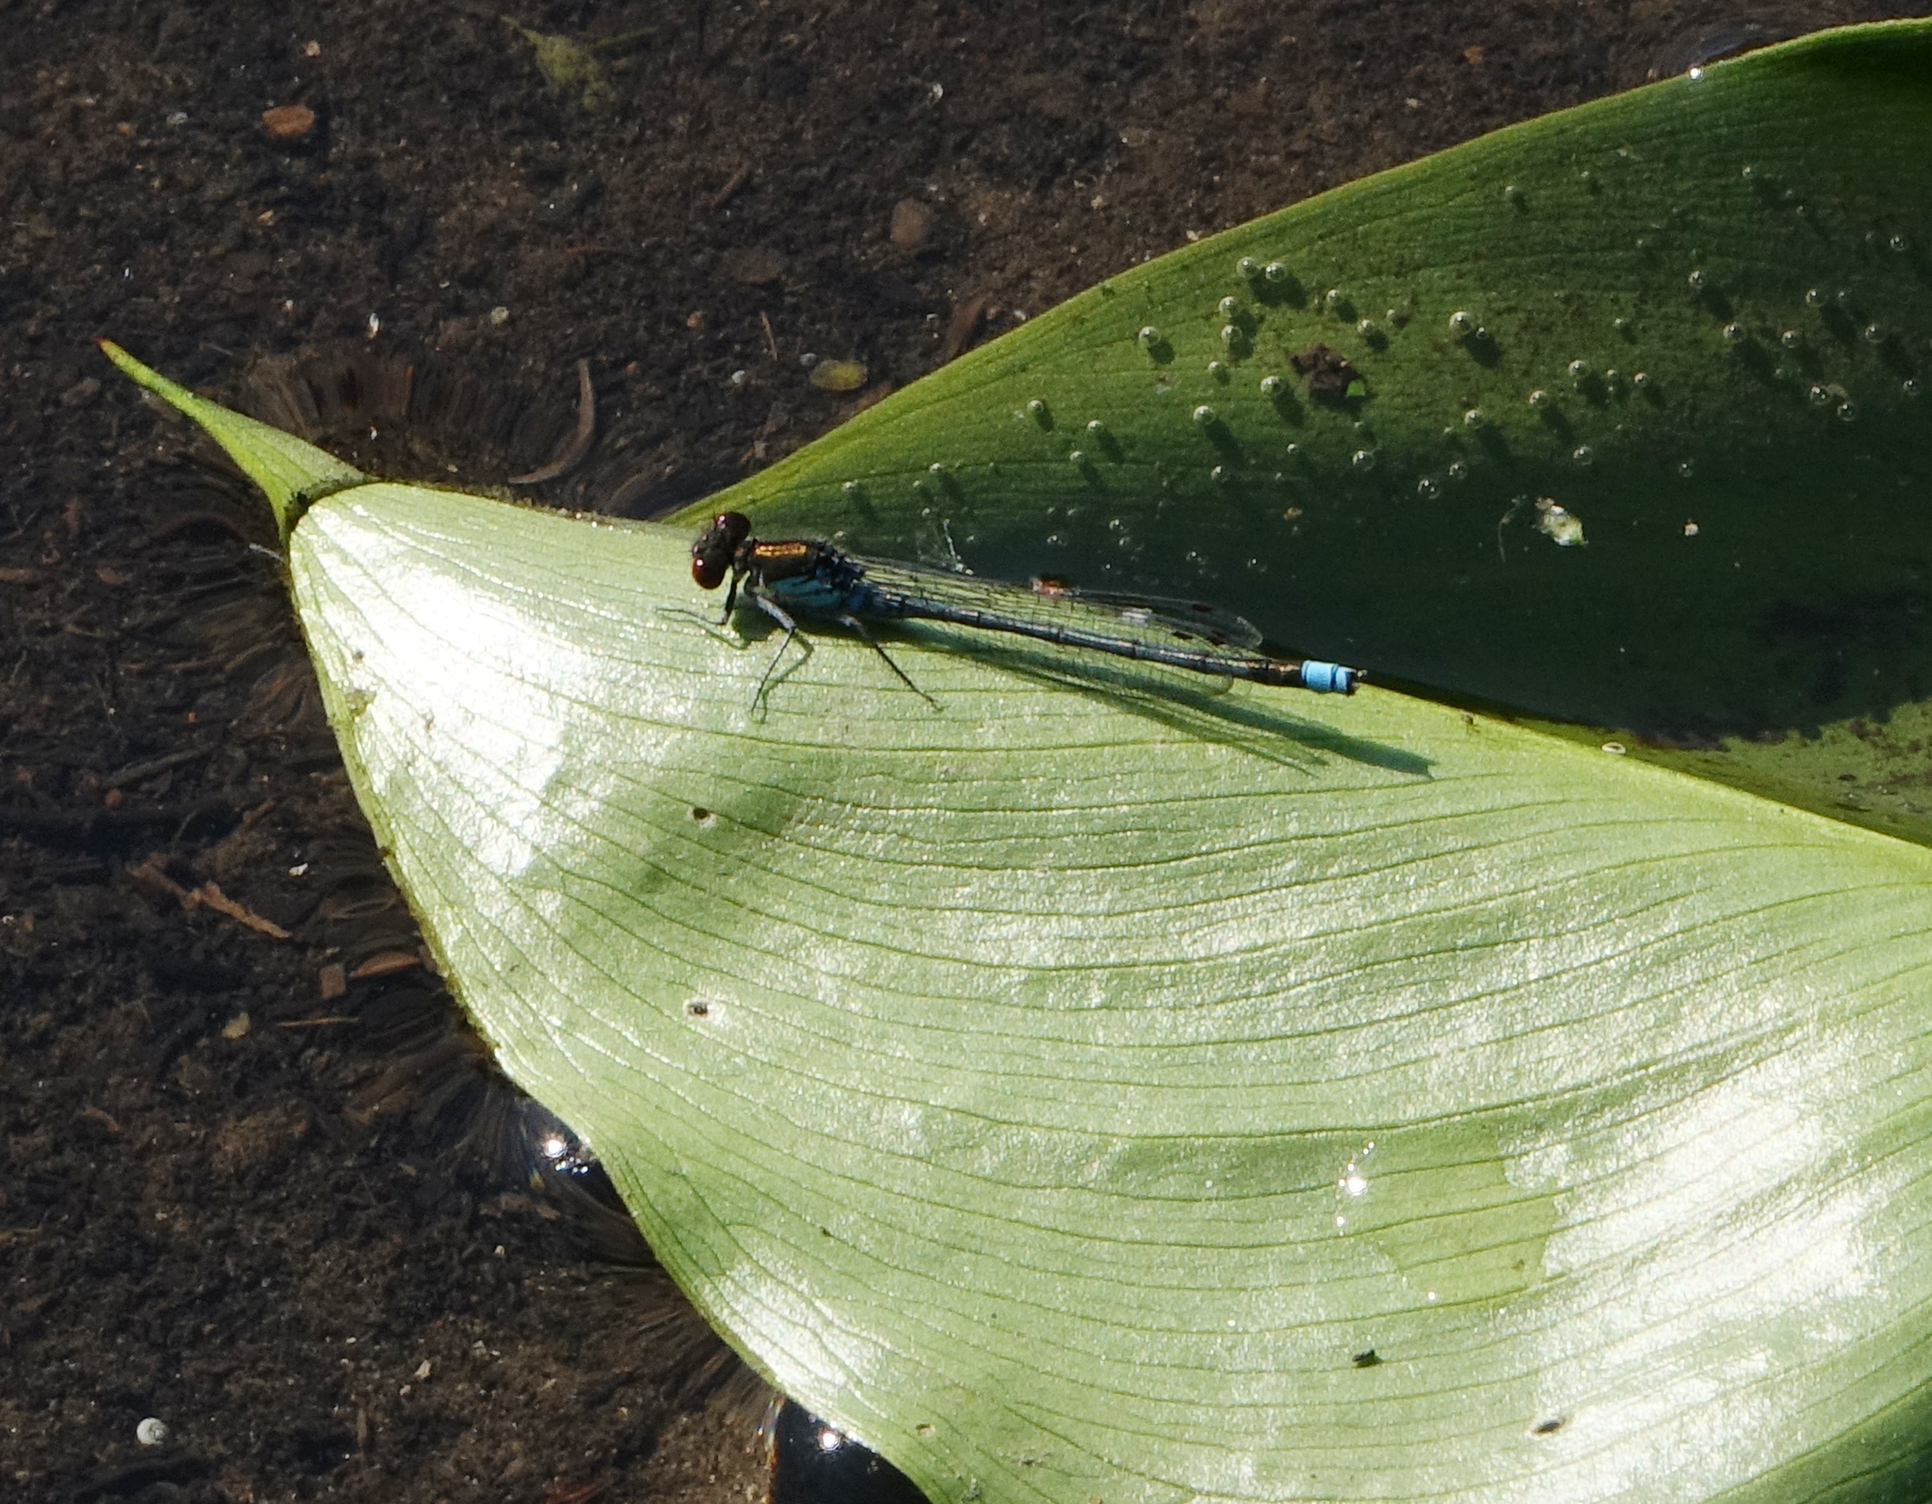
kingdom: Animalia
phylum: Arthropoda
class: Insecta
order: Odonata
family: Coenagrionidae
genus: Erythromma
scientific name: Erythromma najas
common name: Red-eyed damselfly
